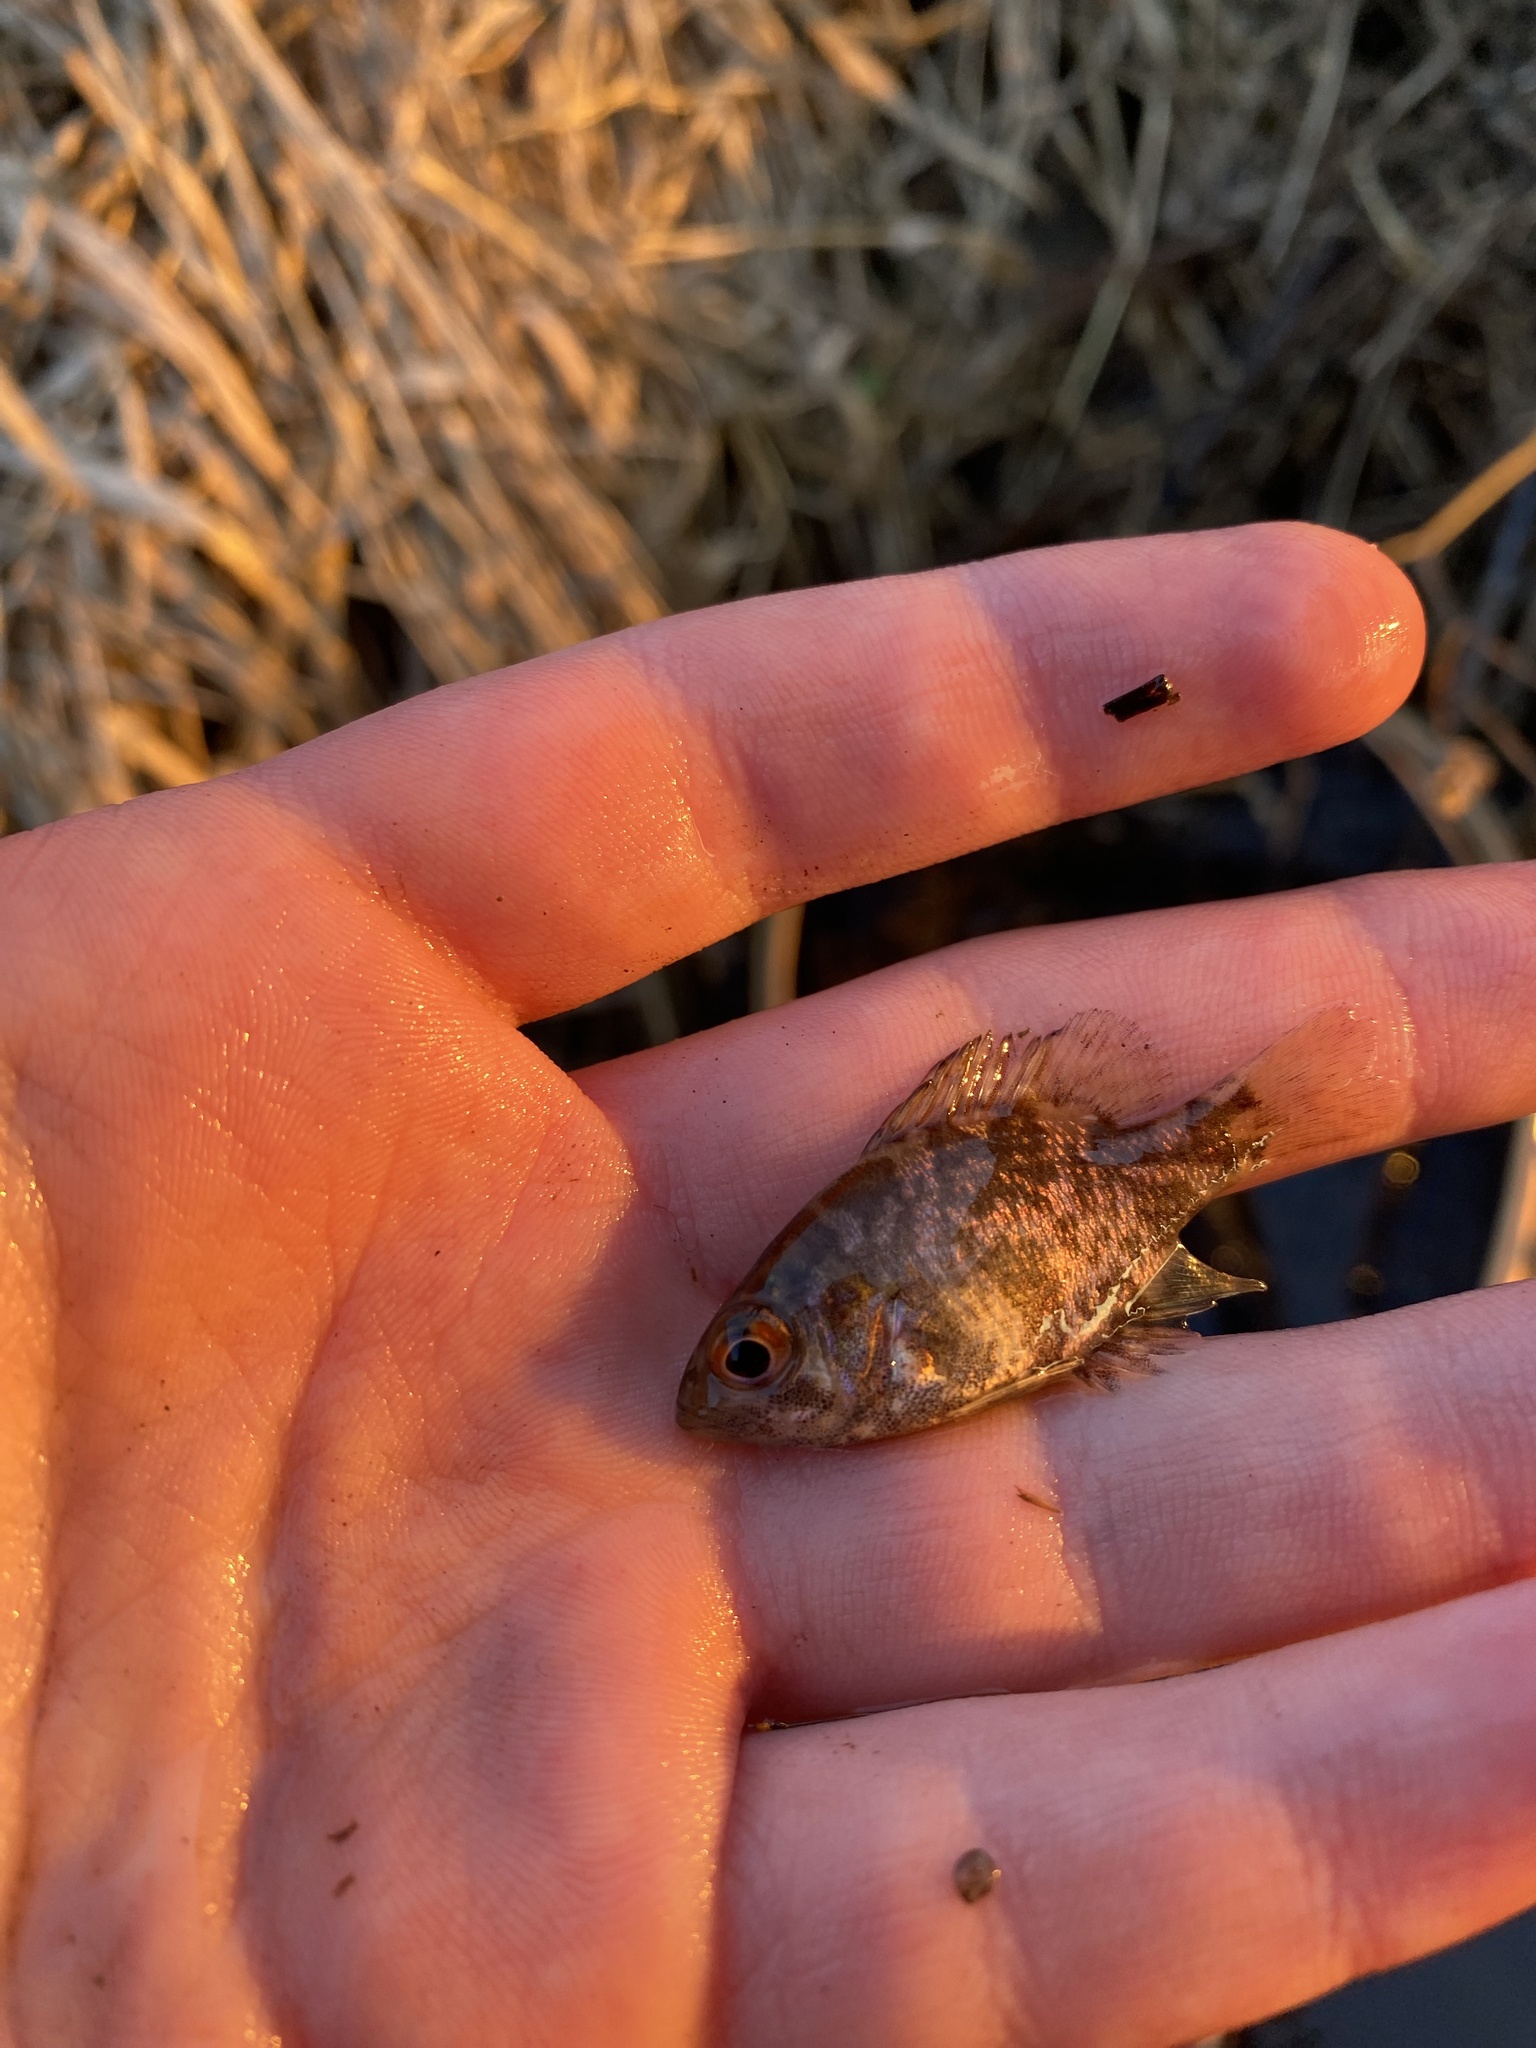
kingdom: Animalia
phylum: Chordata
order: Perciformes
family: Centrarchidae
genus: Ambloplites
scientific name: Ambloplites rupestris
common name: Rock bass
